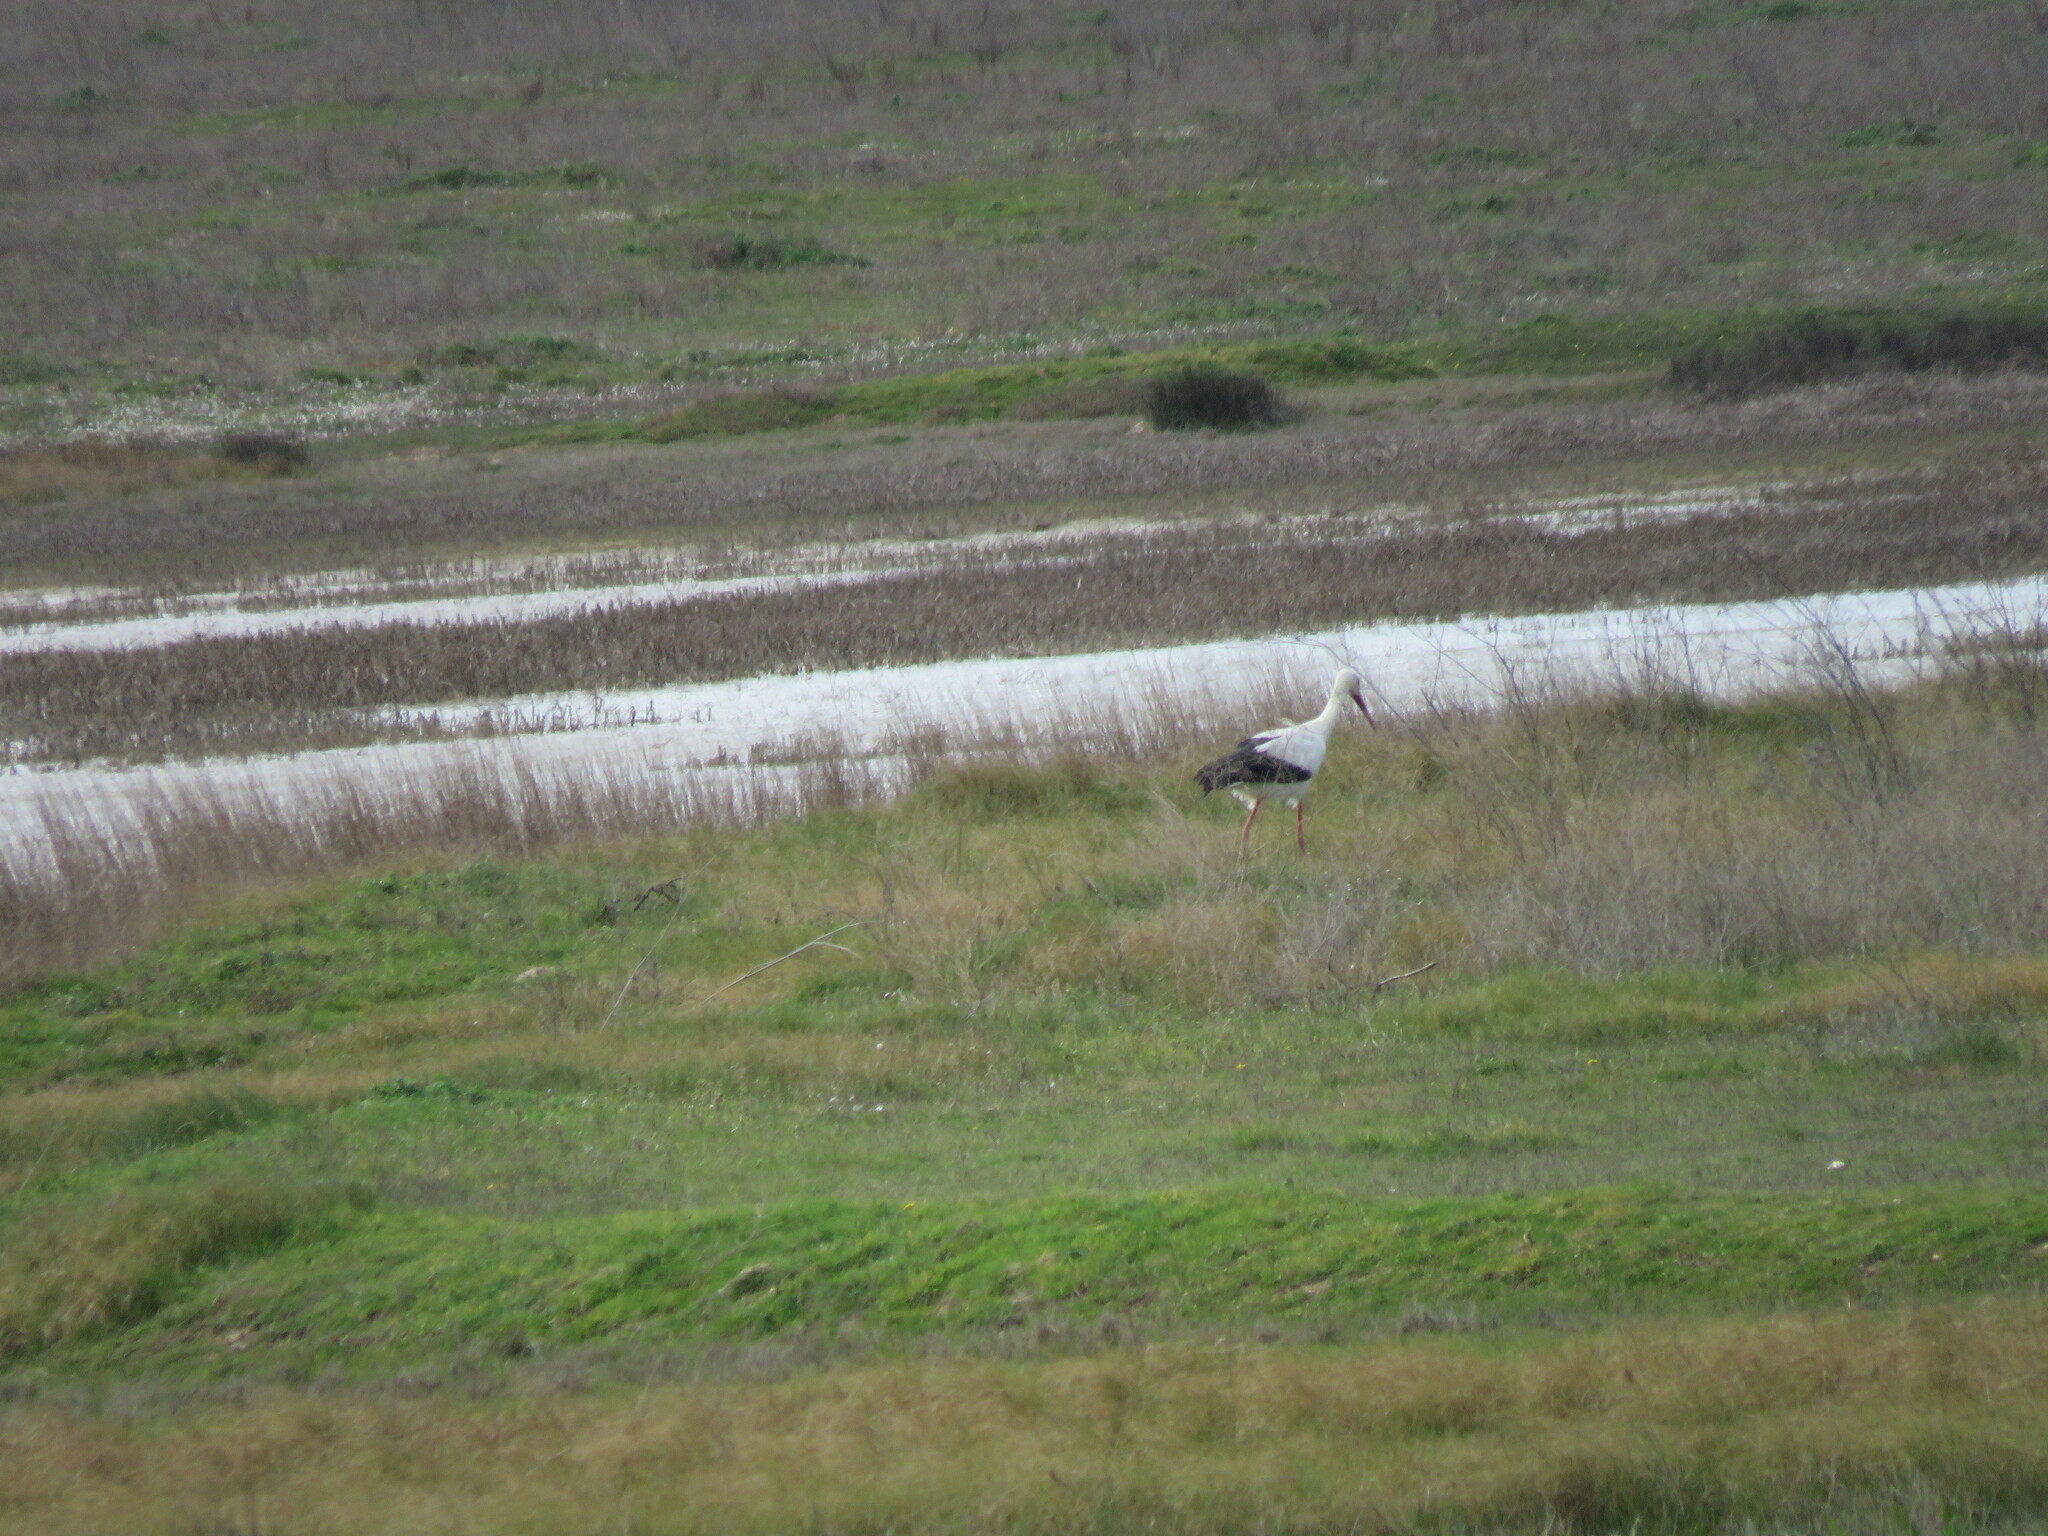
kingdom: Animalia
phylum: Chordata
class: Aves
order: Ciconiiformes
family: Ciconiidae
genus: Ciconia
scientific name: Ciconia ciconia
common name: White stork
